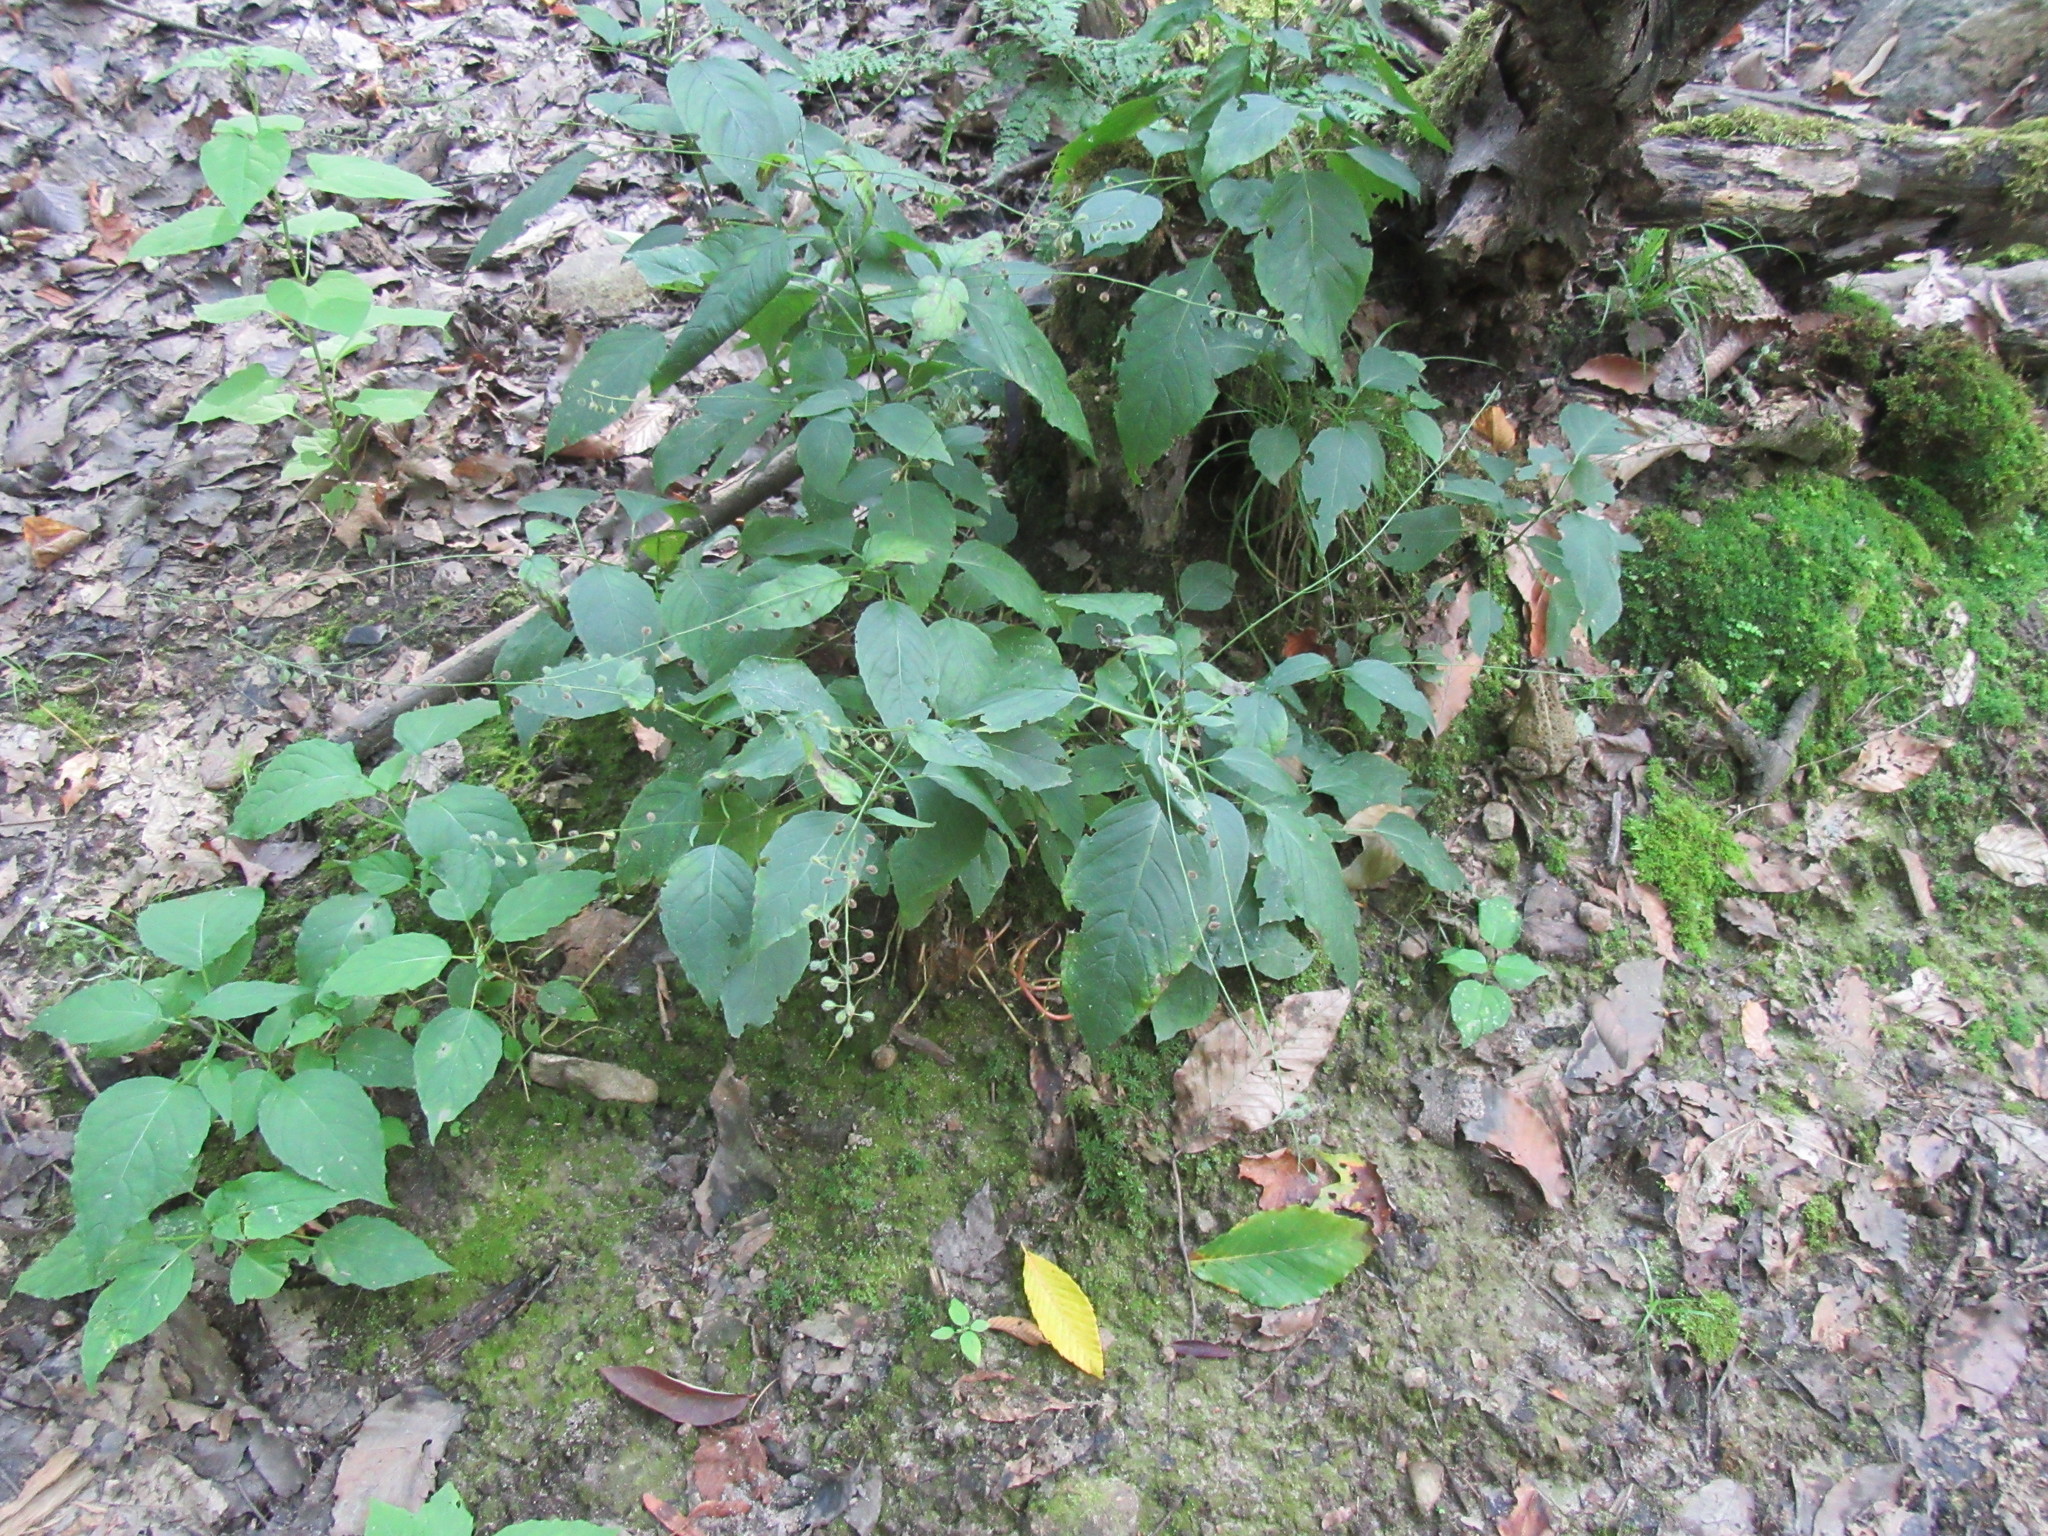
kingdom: Plantae
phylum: Tracheophyta
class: Magnoliopsida
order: Myrtales
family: Onagraceae
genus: Circaea
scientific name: Circaea canadensis
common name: Broad-leaved enchanter's nightshade
